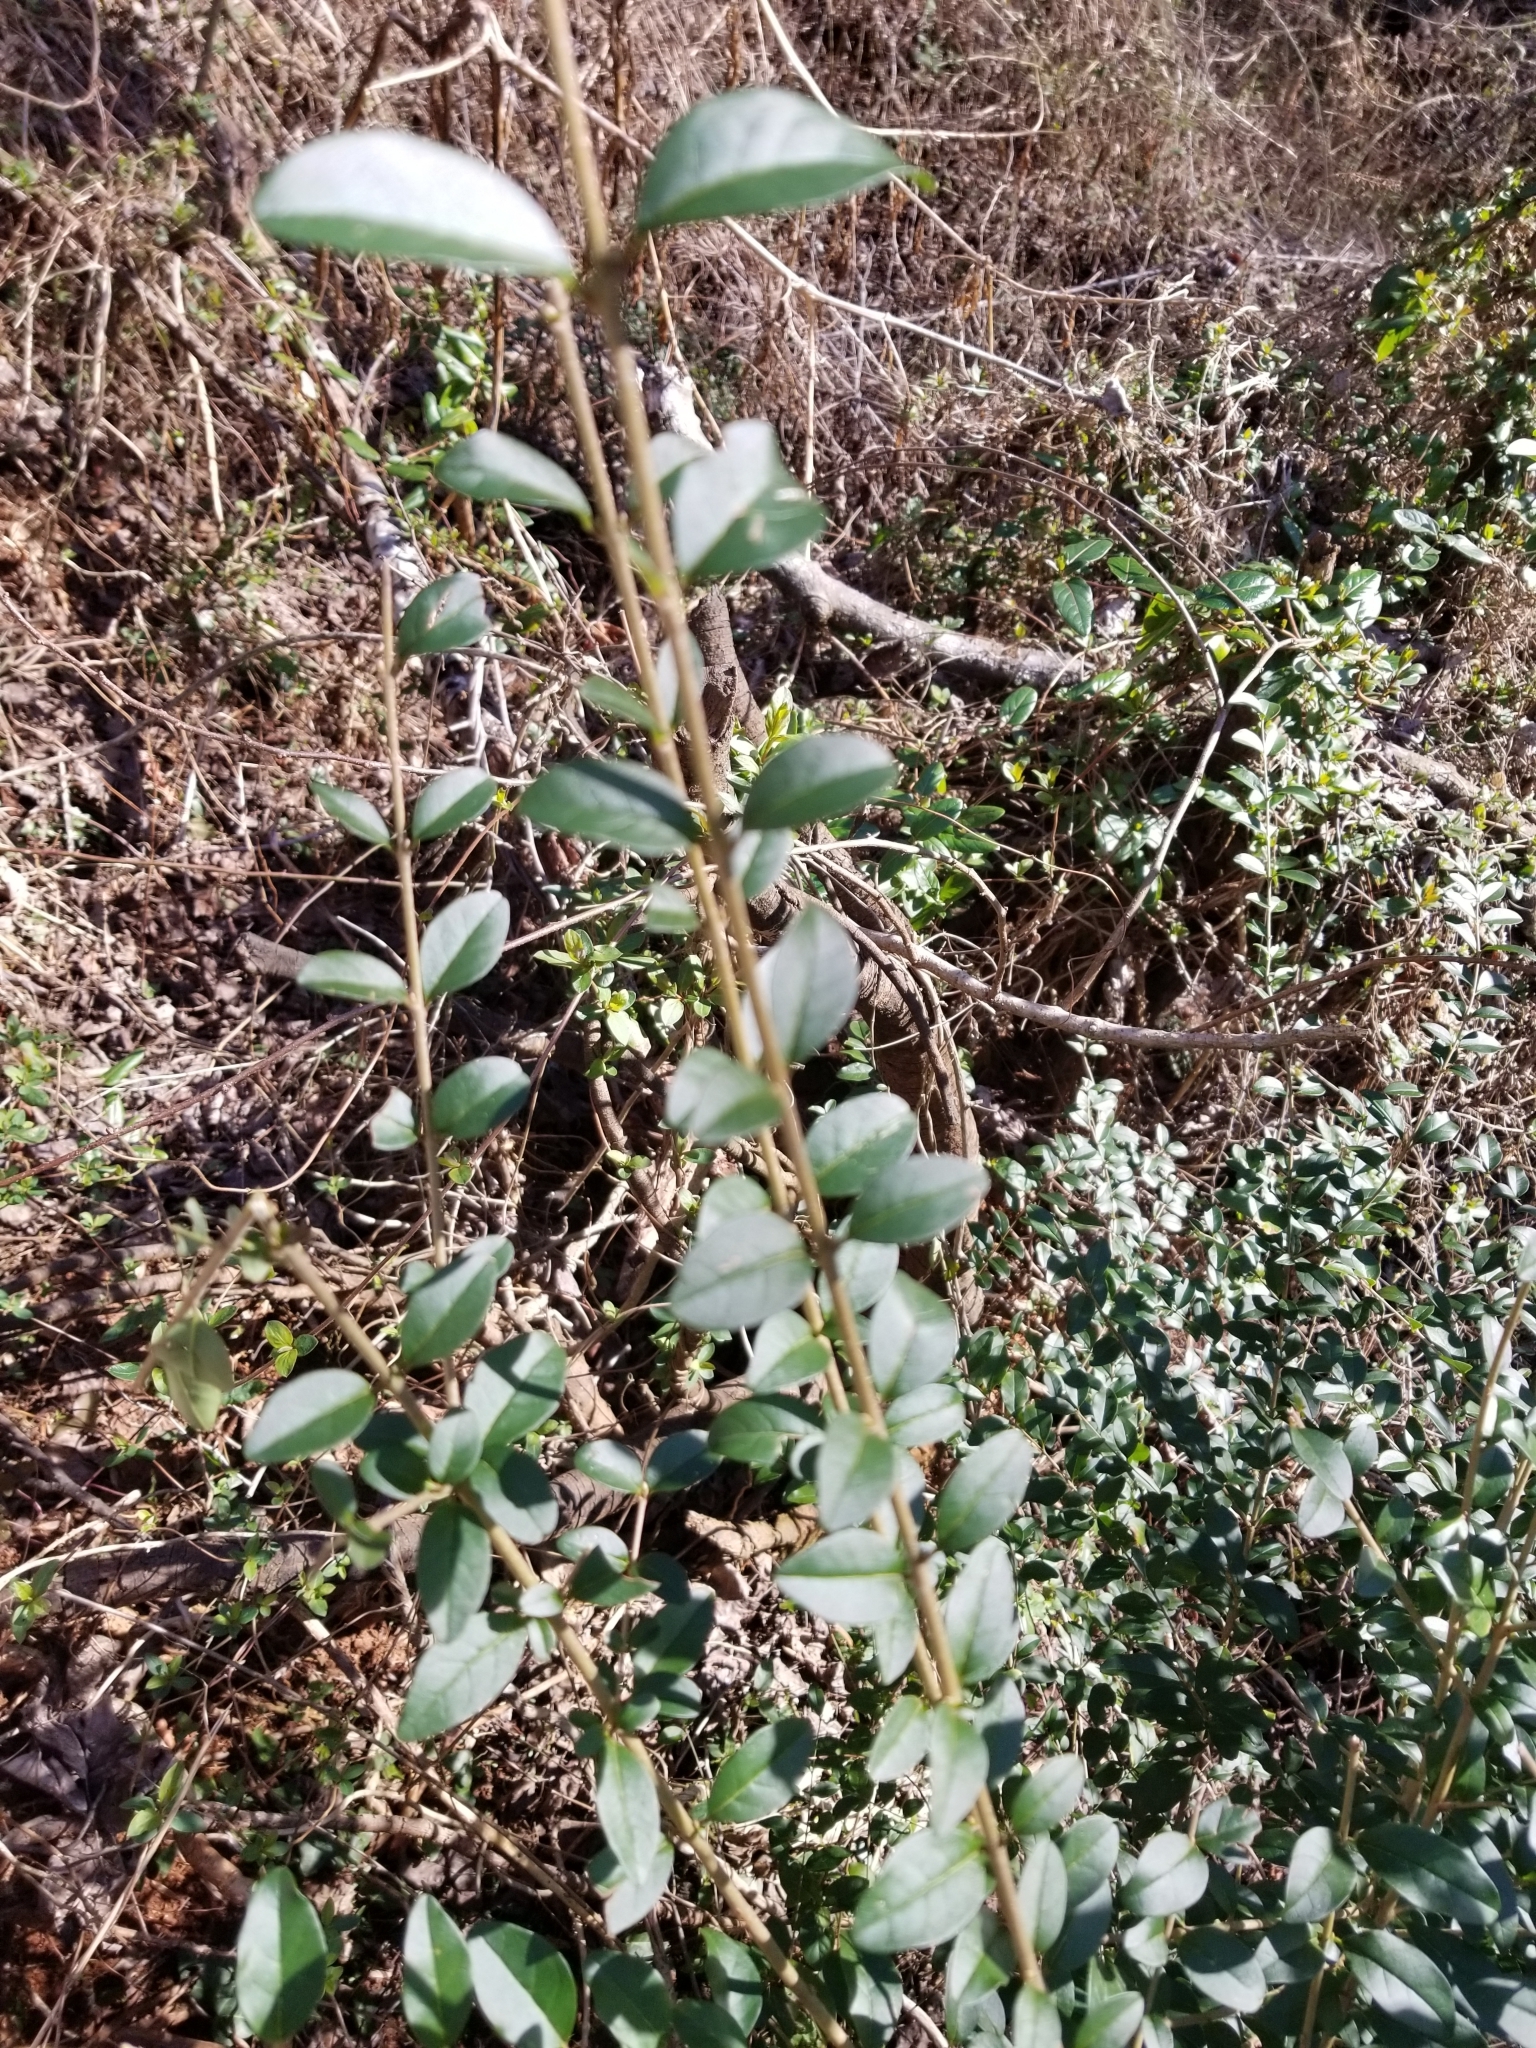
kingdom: Plantae
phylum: Tracheophyta
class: Magnoliopsida
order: Lamiales
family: Oleaceae
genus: Ligustrum
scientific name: Ligustrum
